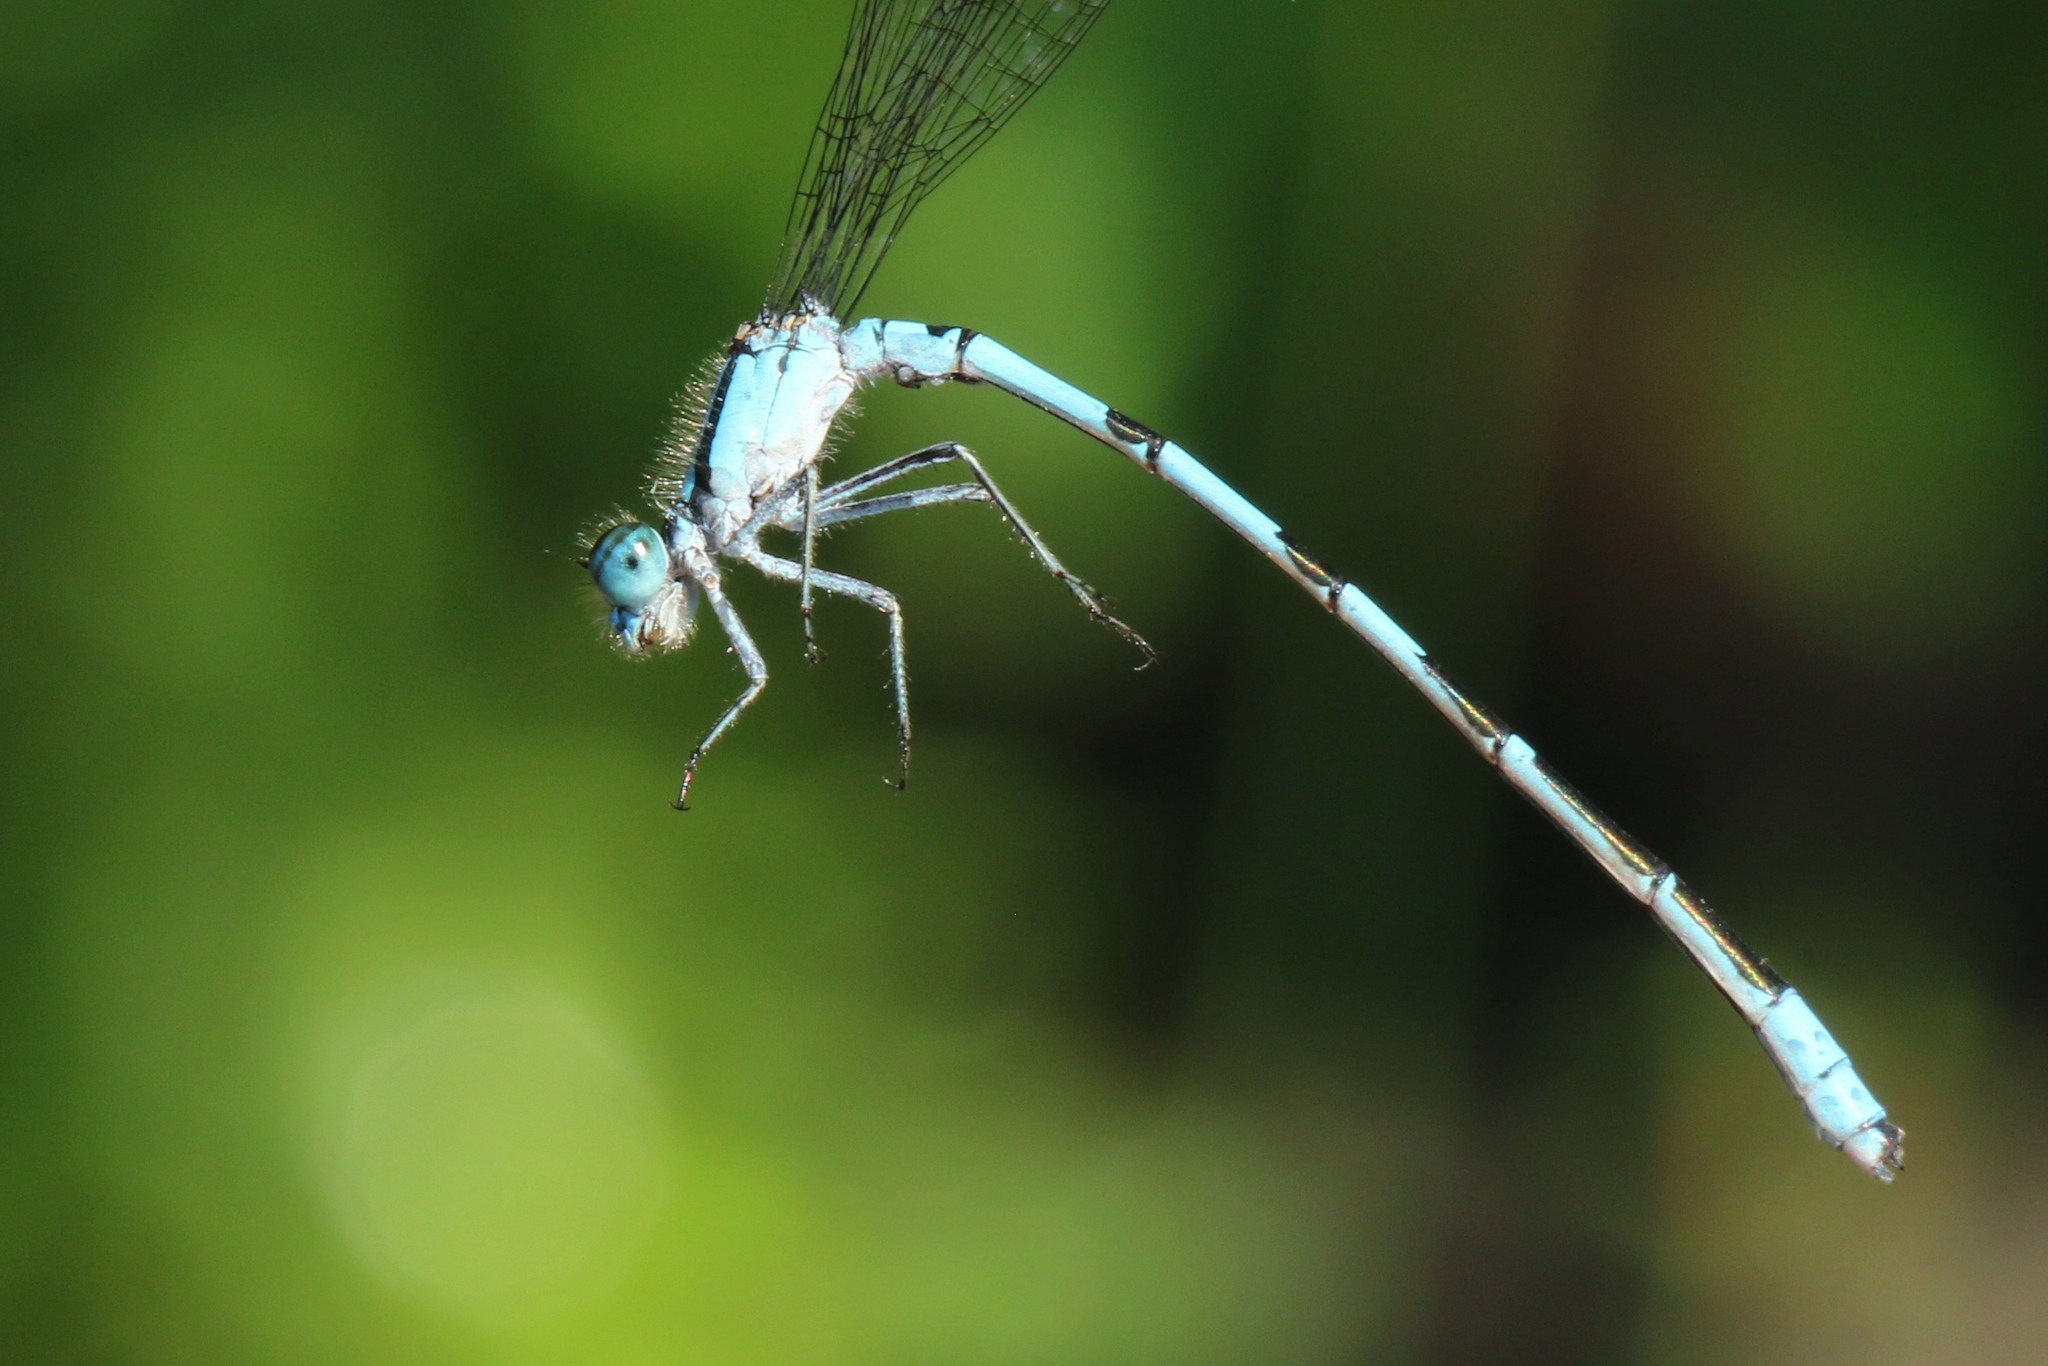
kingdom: Animalia
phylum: Arthropoda
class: Insecta
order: Odonata
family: Coenagrionidae
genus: Enallagma
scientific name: Enallagma hageni
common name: Hagen's bluet
